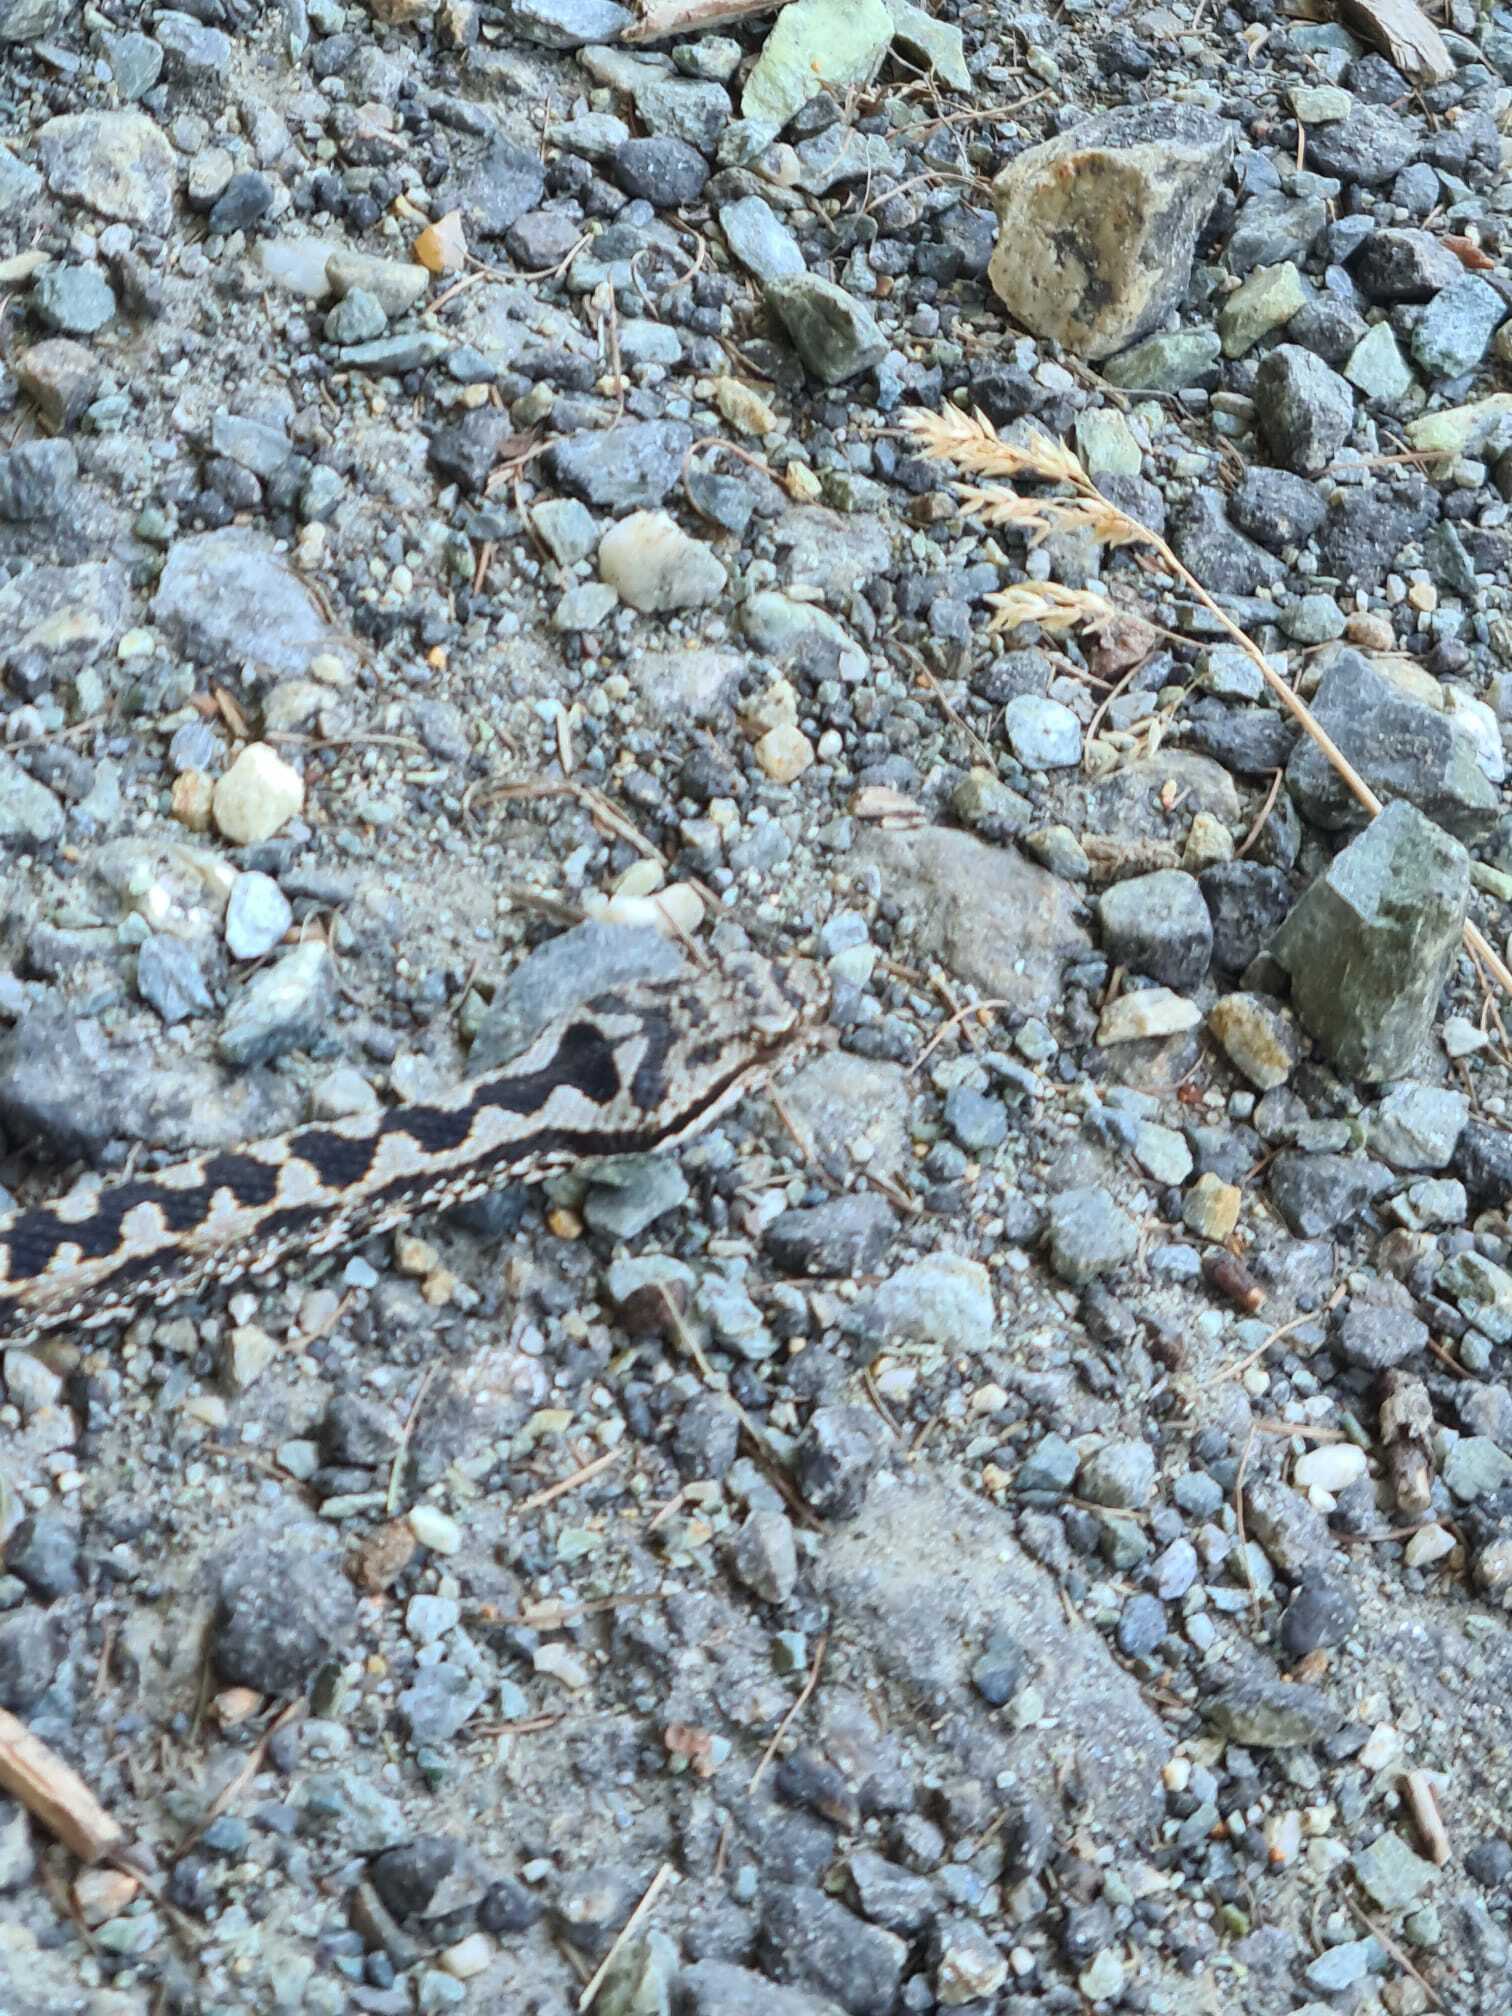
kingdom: Animalia
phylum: Chordata
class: Squamata
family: Viperidae
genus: Vipera
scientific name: Vipera aspis
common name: Asp viper
